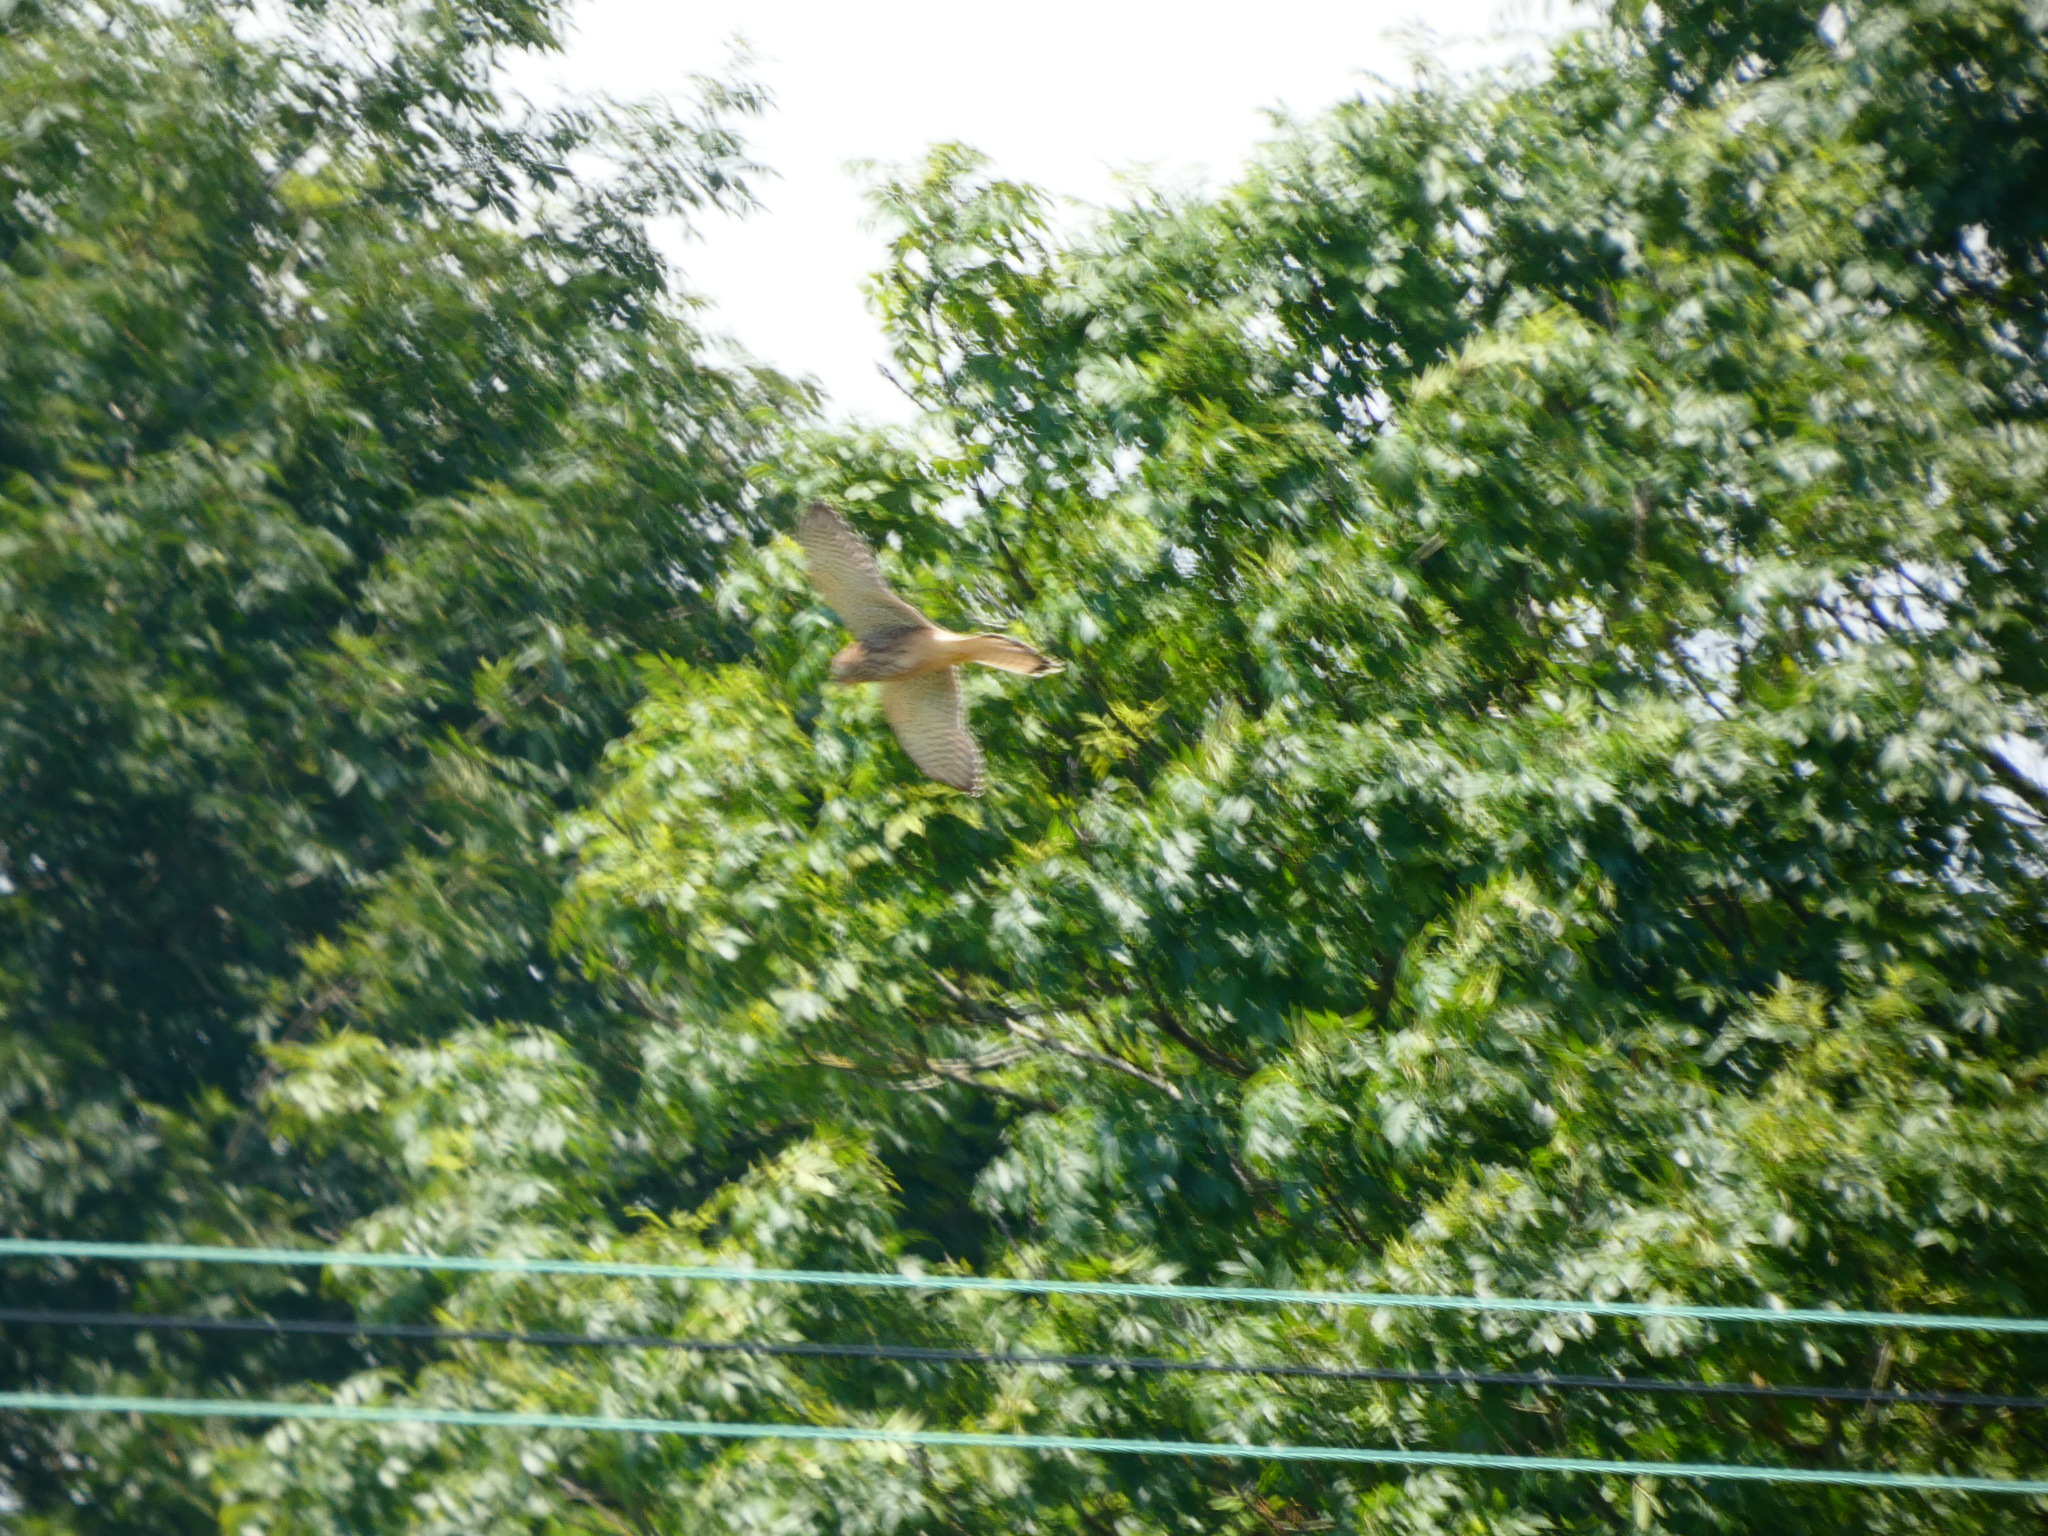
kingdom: Animalia
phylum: Chordata
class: Aves
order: Falconiformes
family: Falconidae
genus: Falco
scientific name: Falco tinnunculus
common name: Common kestrel
